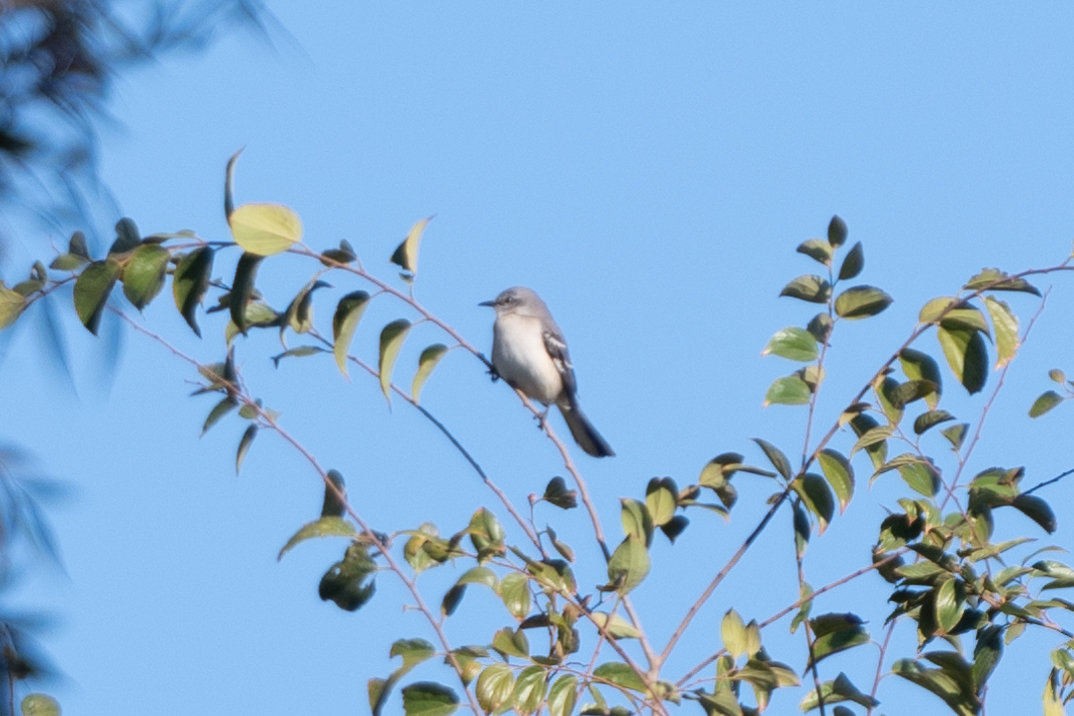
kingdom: Animalia
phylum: Chordata
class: Aves
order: Passeriformes
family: Mimidae
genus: Mimus
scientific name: Mimus polyglottos
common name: Northern mockingbird
